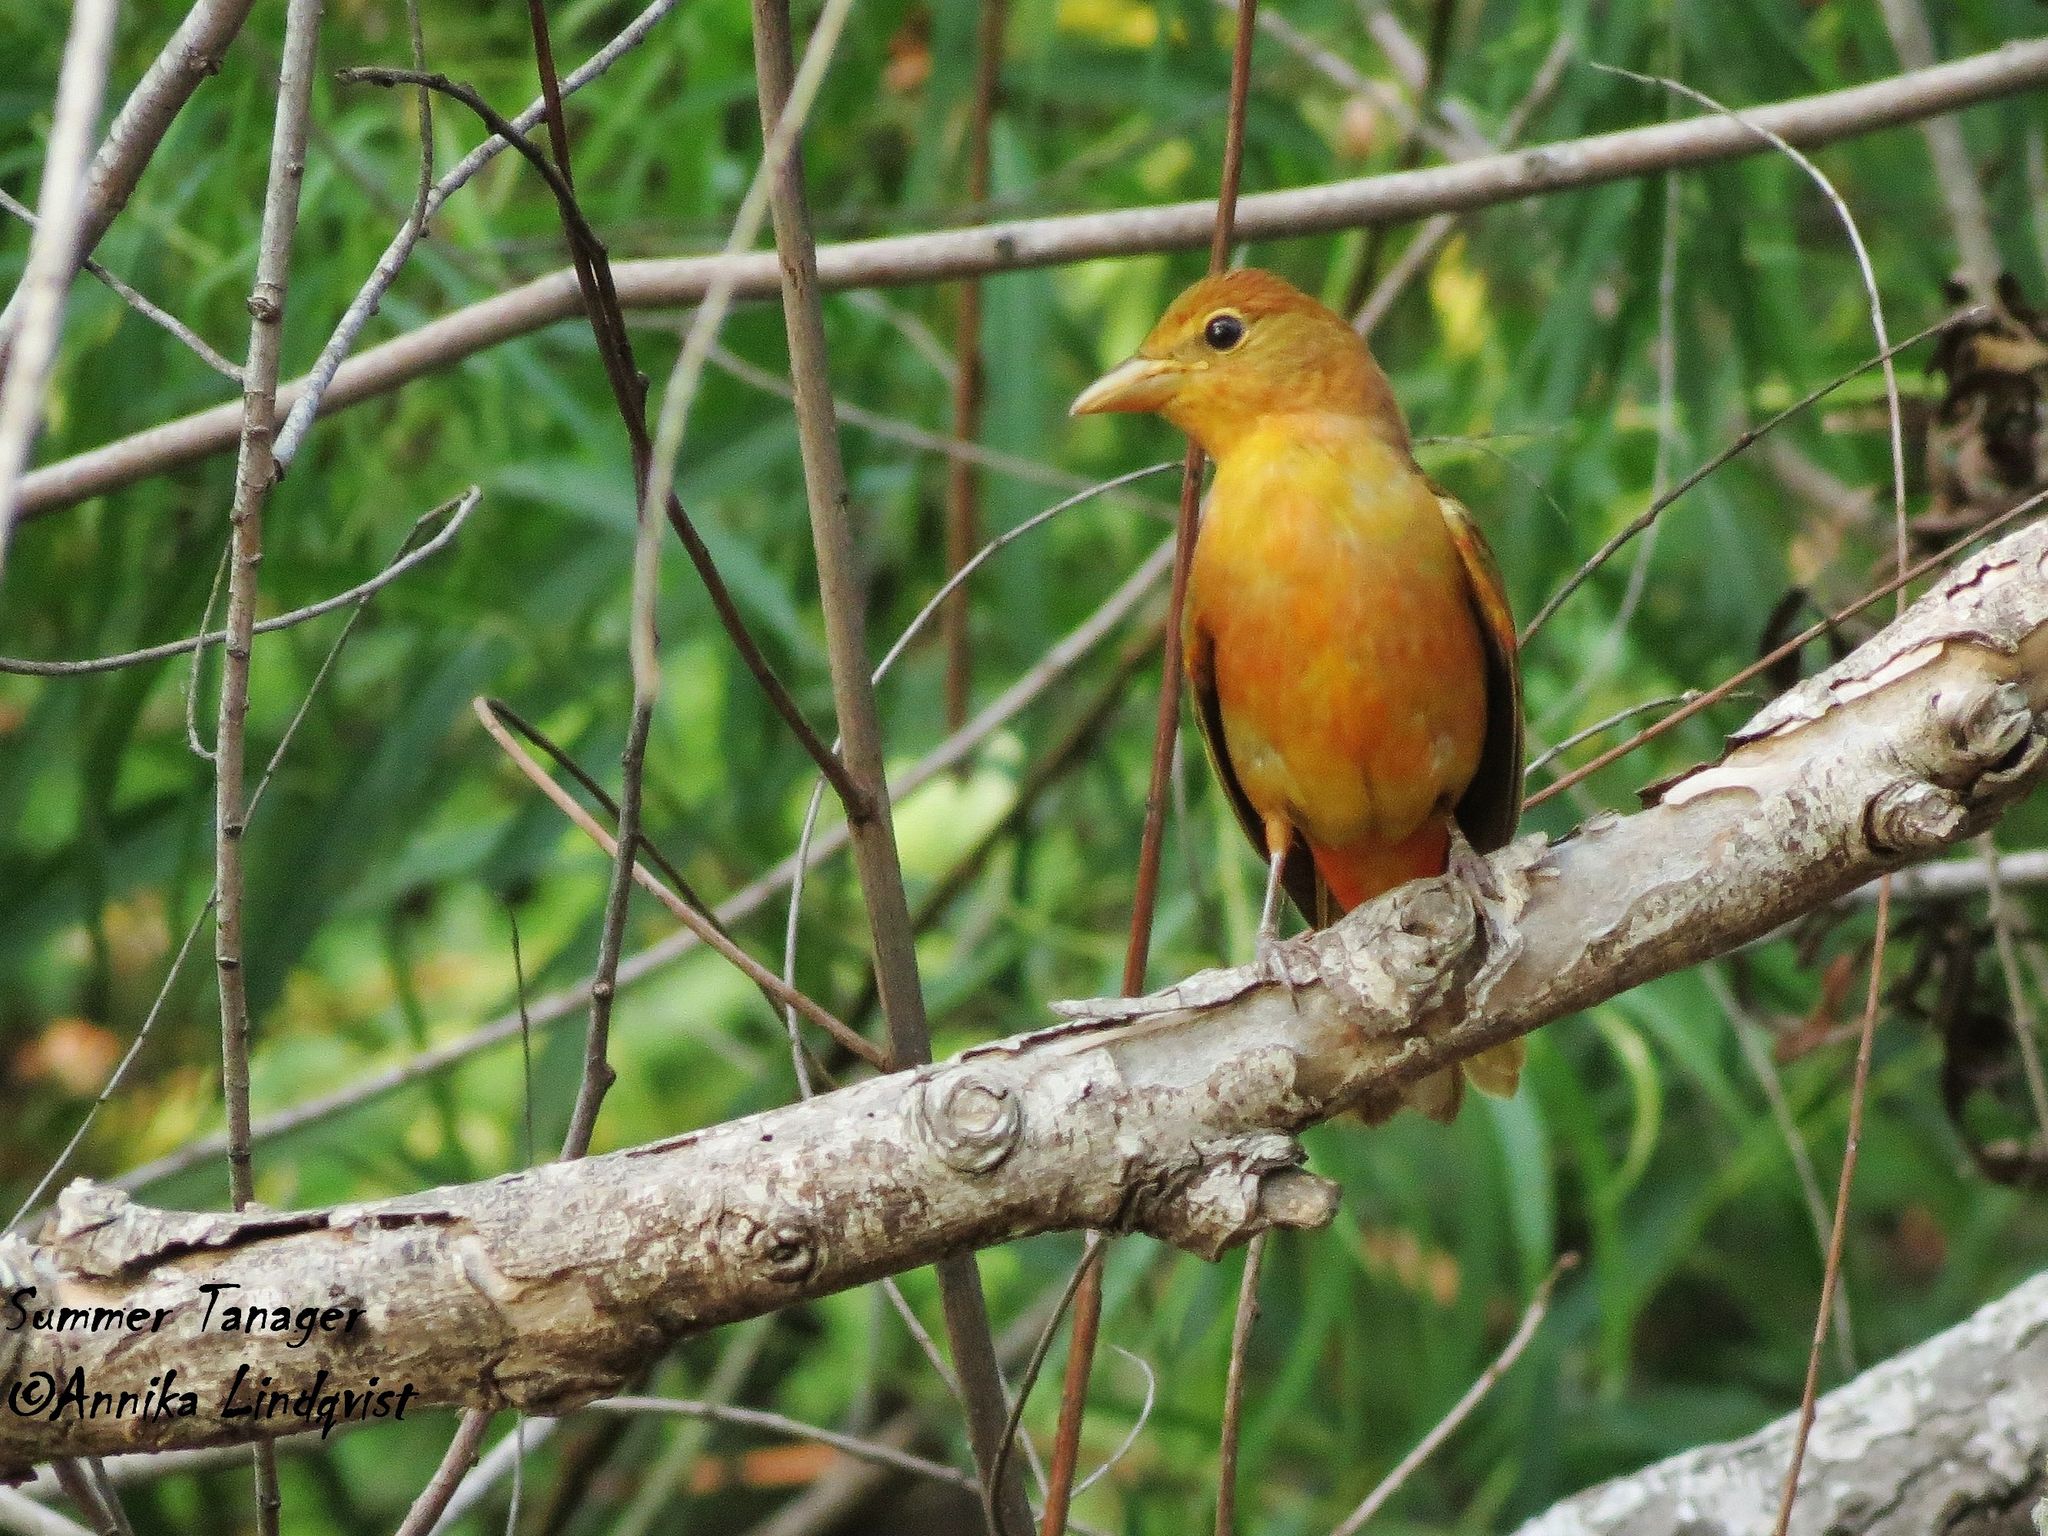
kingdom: Animalia
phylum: Chordata
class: Aves
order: Passeriformes
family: Cardinalidae
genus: Piranga
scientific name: Piranga rubra
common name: Summer tanager
